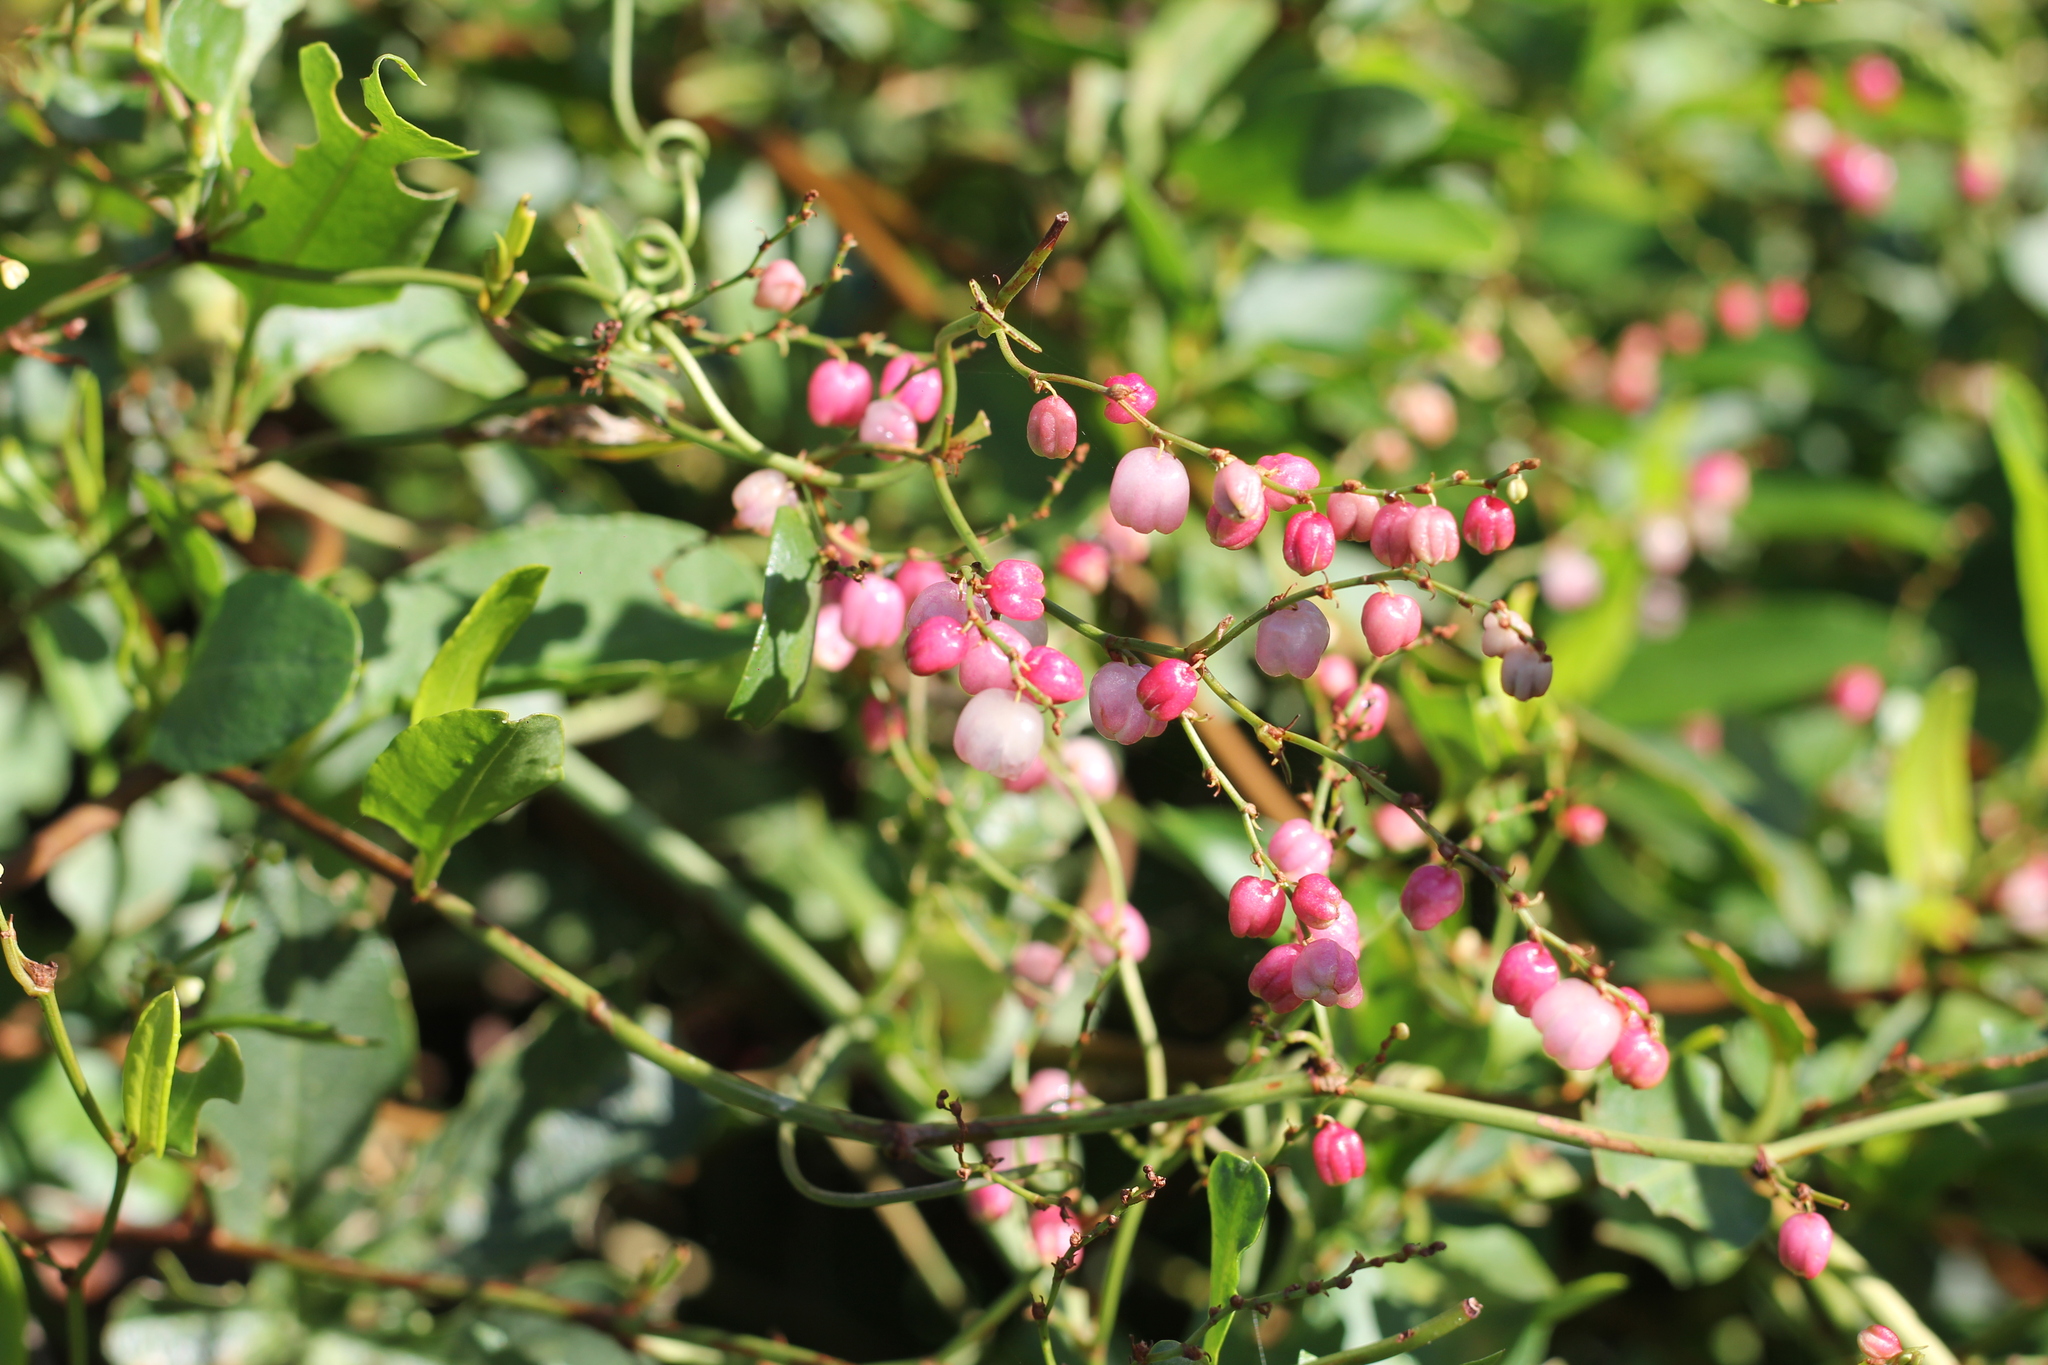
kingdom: Plantae
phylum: Tracheophyta
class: Magnoliopsida
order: Caryophyllales
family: Polygonaceae
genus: Muehlenbeckia
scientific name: Muehlenbeckia sagittifolia
